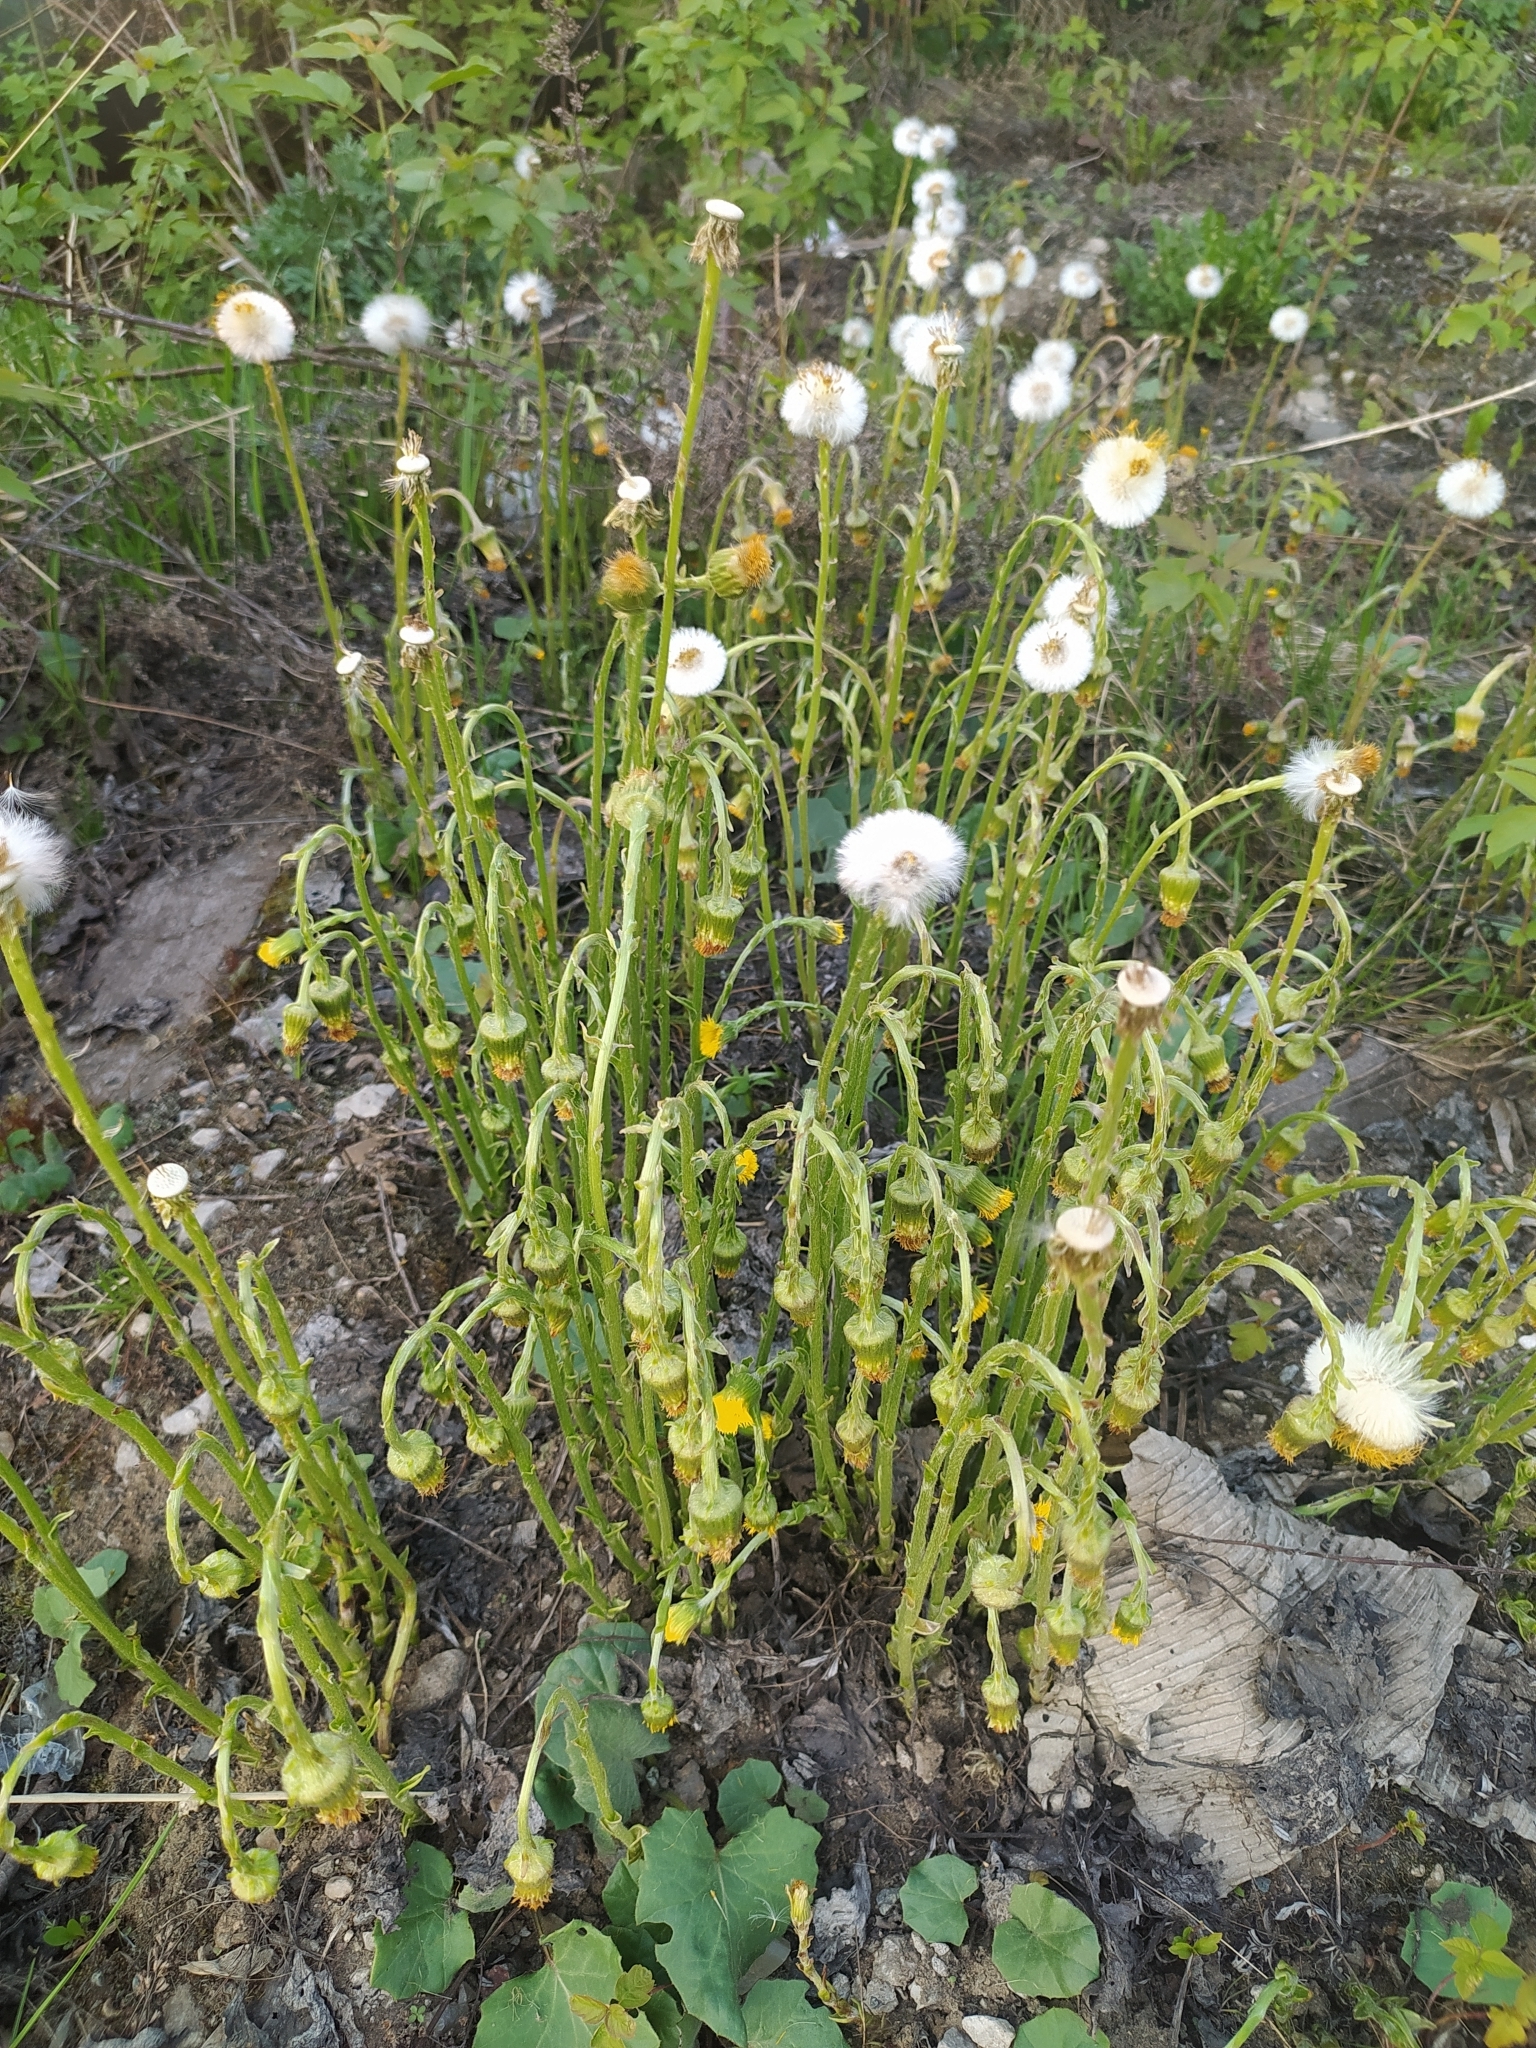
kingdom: Plantae
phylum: Tracheophyta
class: Magnoliopsida
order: Asterales
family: Asteraceae
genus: Tussilago
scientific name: Tussilago farfara
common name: Coltsfoot
